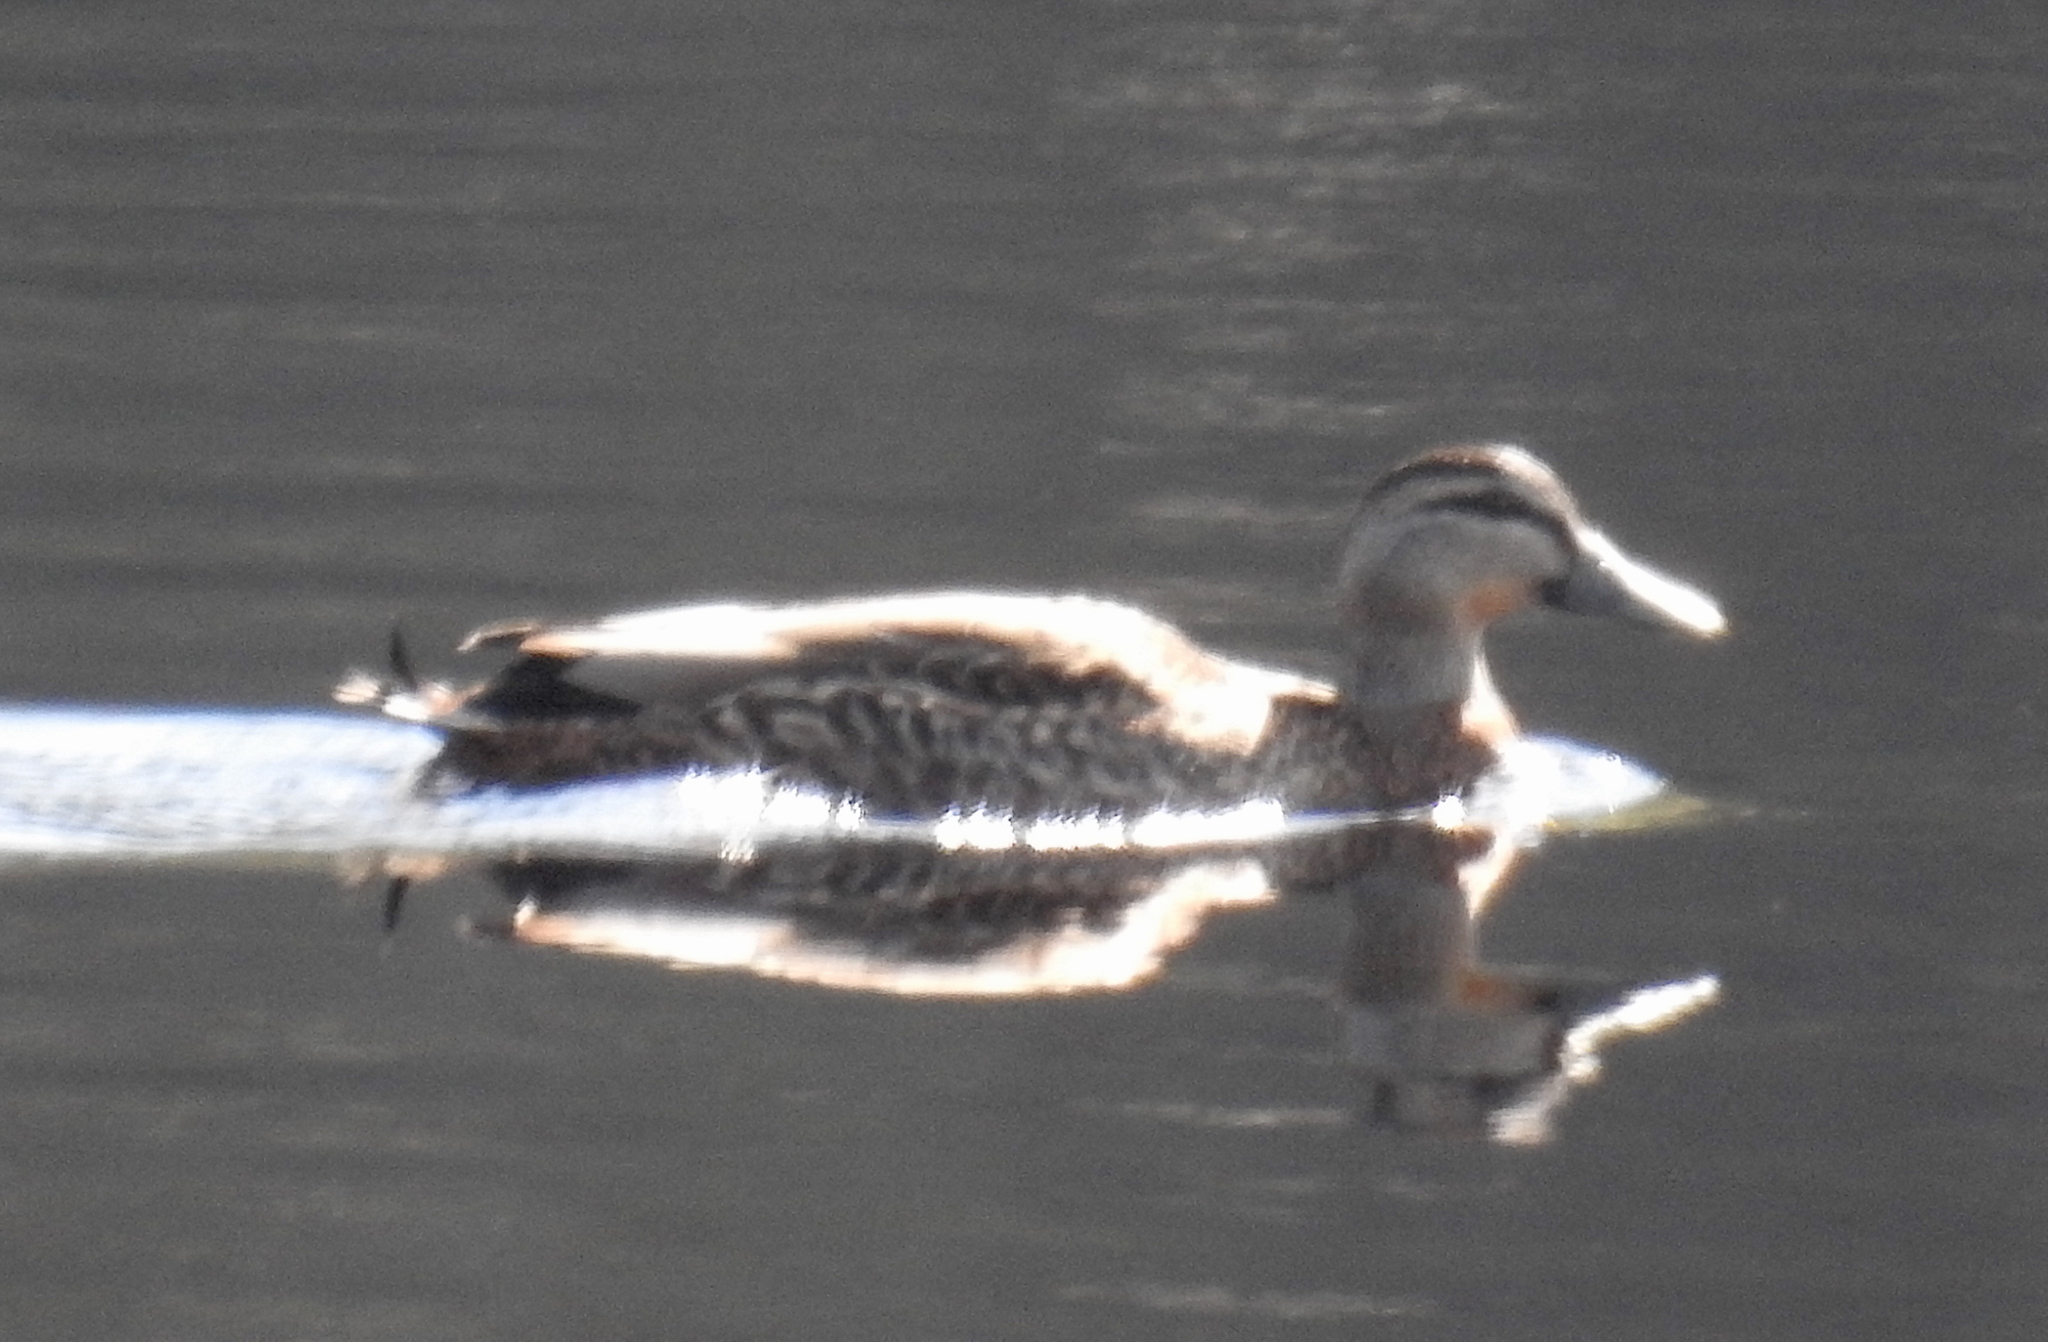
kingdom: Animalia
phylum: Chordata
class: Aves
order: Anseriformes
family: Anatidae
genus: Anas
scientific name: Anas
